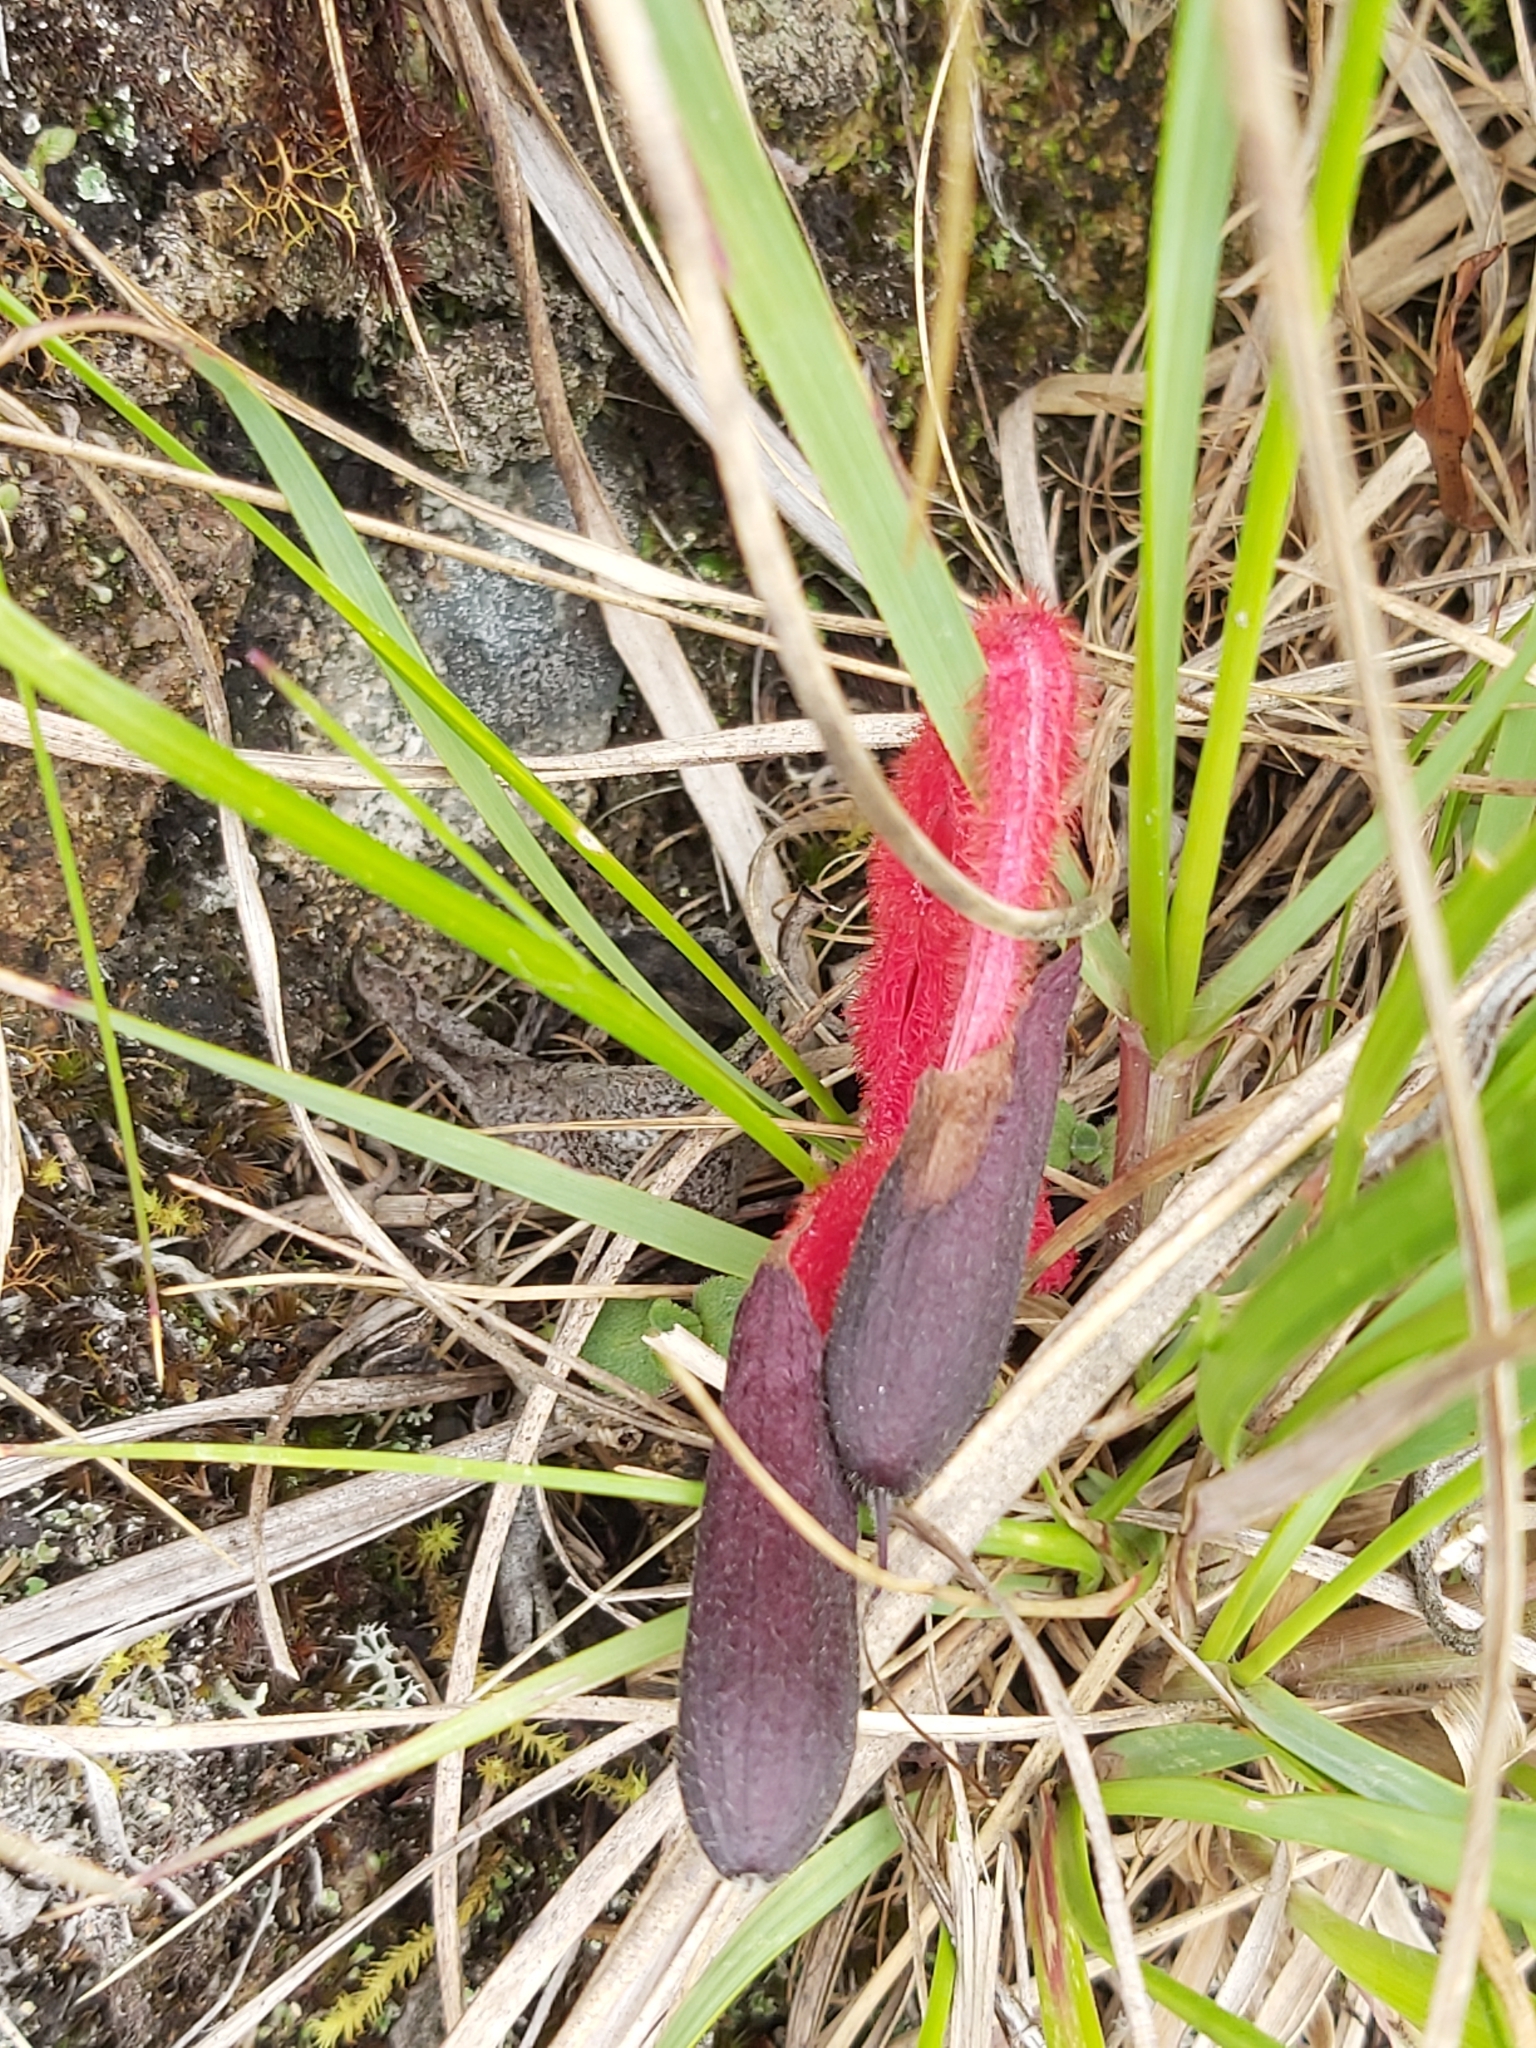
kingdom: Plantae
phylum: Tracheophyta
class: Magnoliopsida
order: Lamiales
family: Lamiaceae
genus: Salvia
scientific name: Salvia dombeyi
